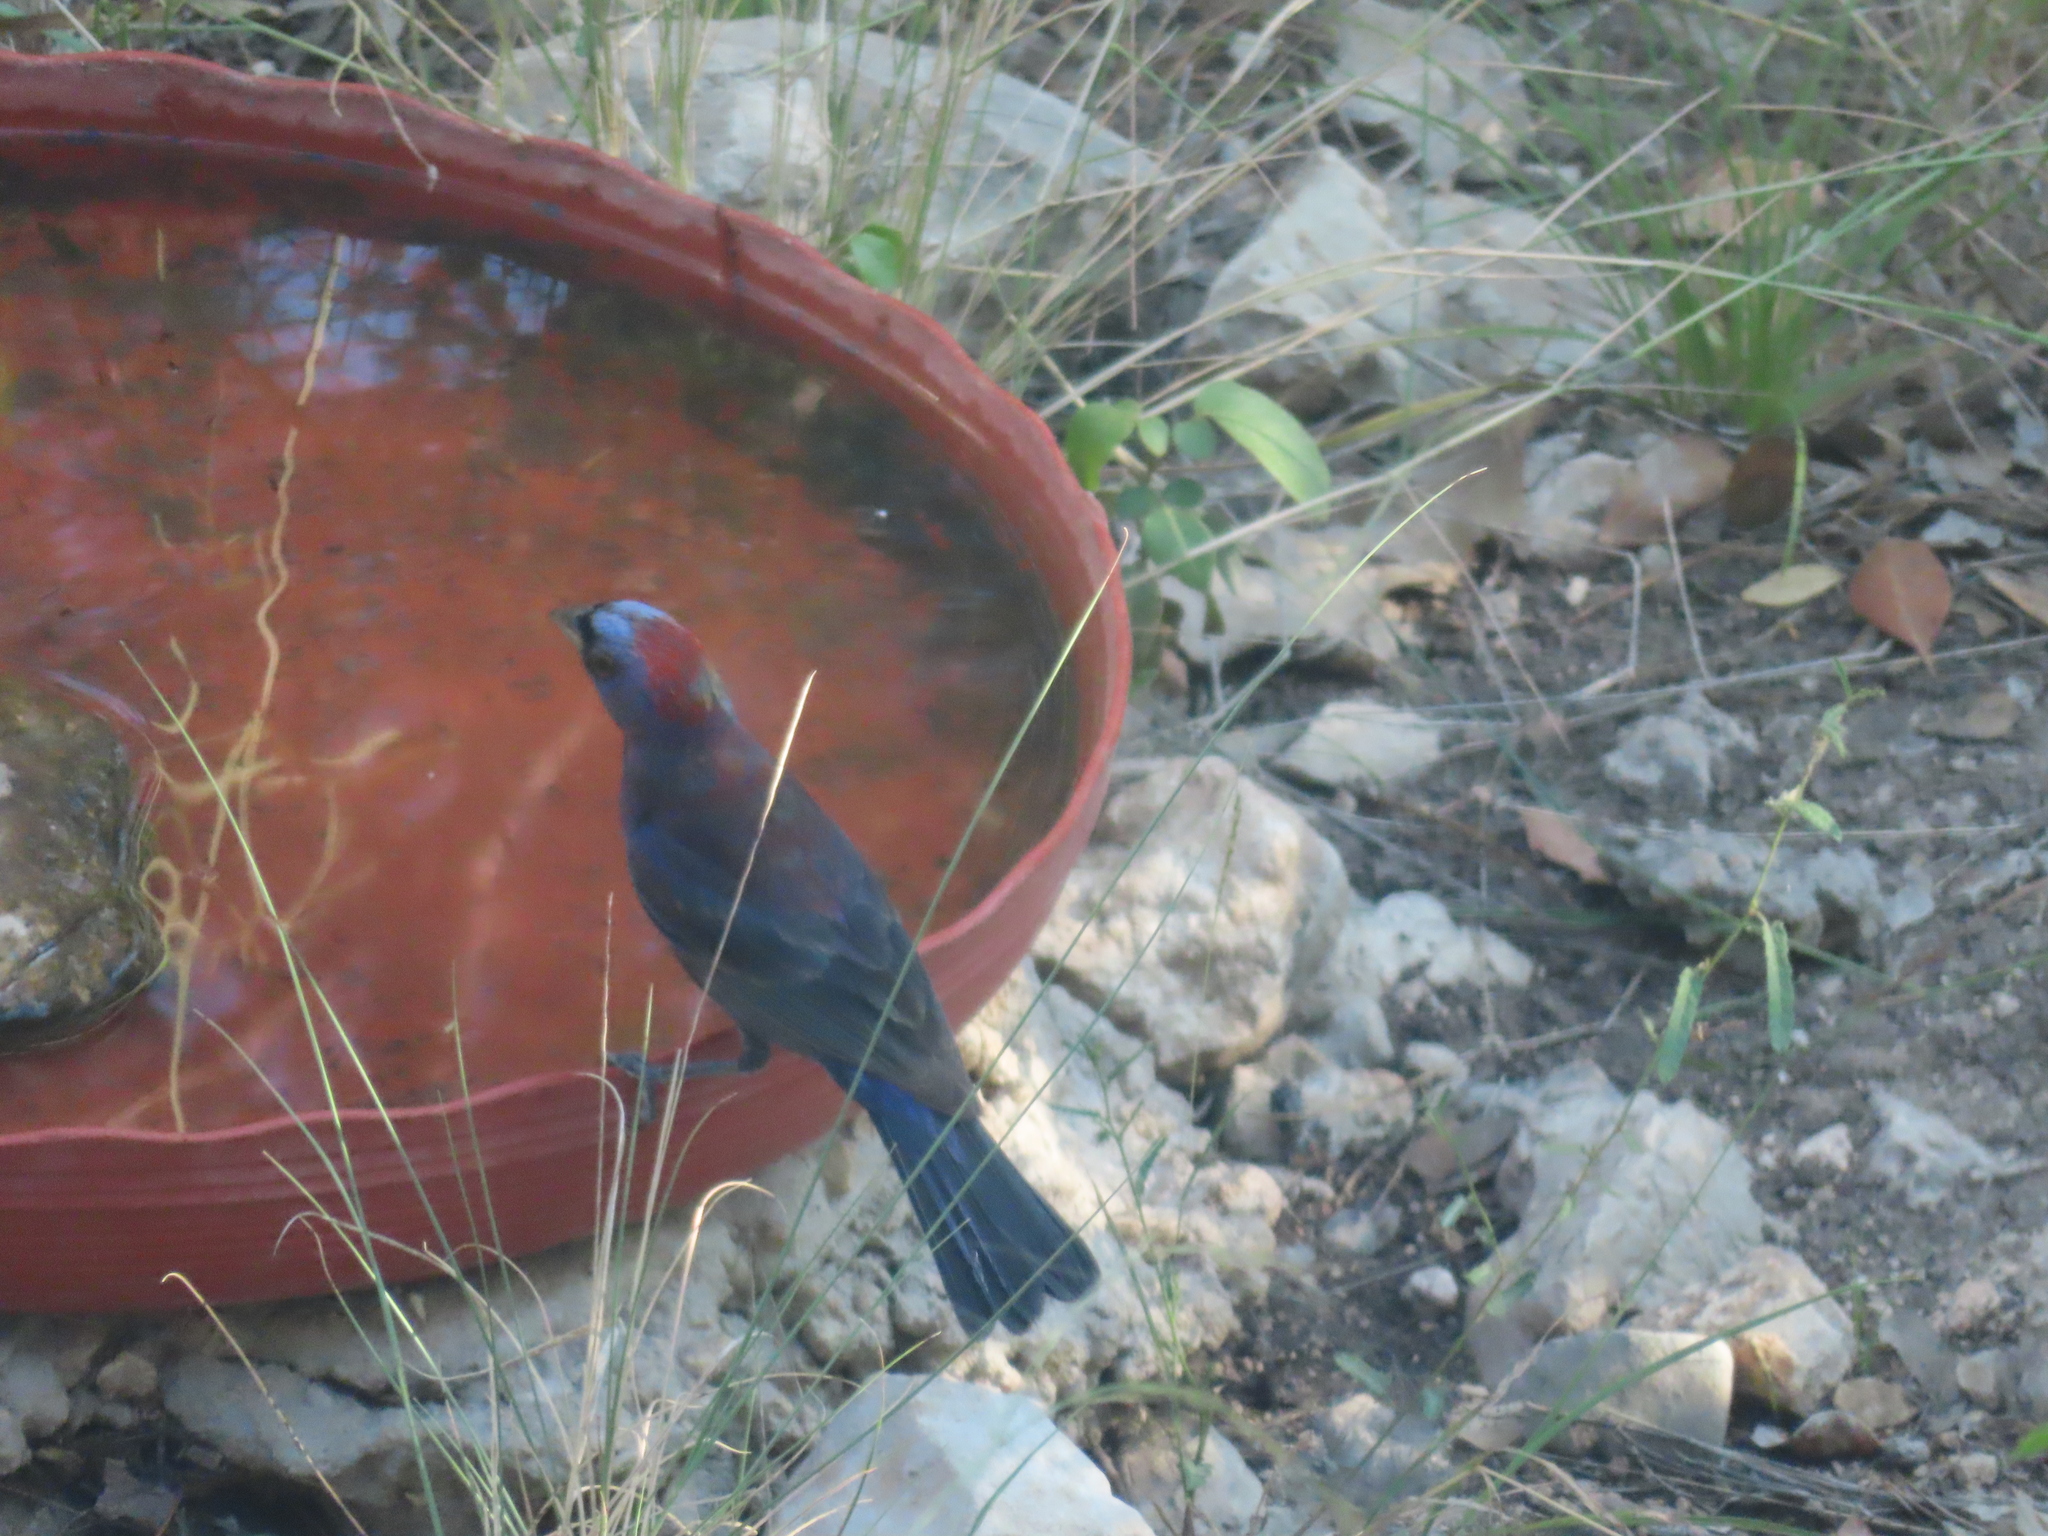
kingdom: Animalia
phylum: Chordata
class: Aves
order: Passeriformes
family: Cardinalidae
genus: Passerina
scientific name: Passerina versicolor
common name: Varied bunting
